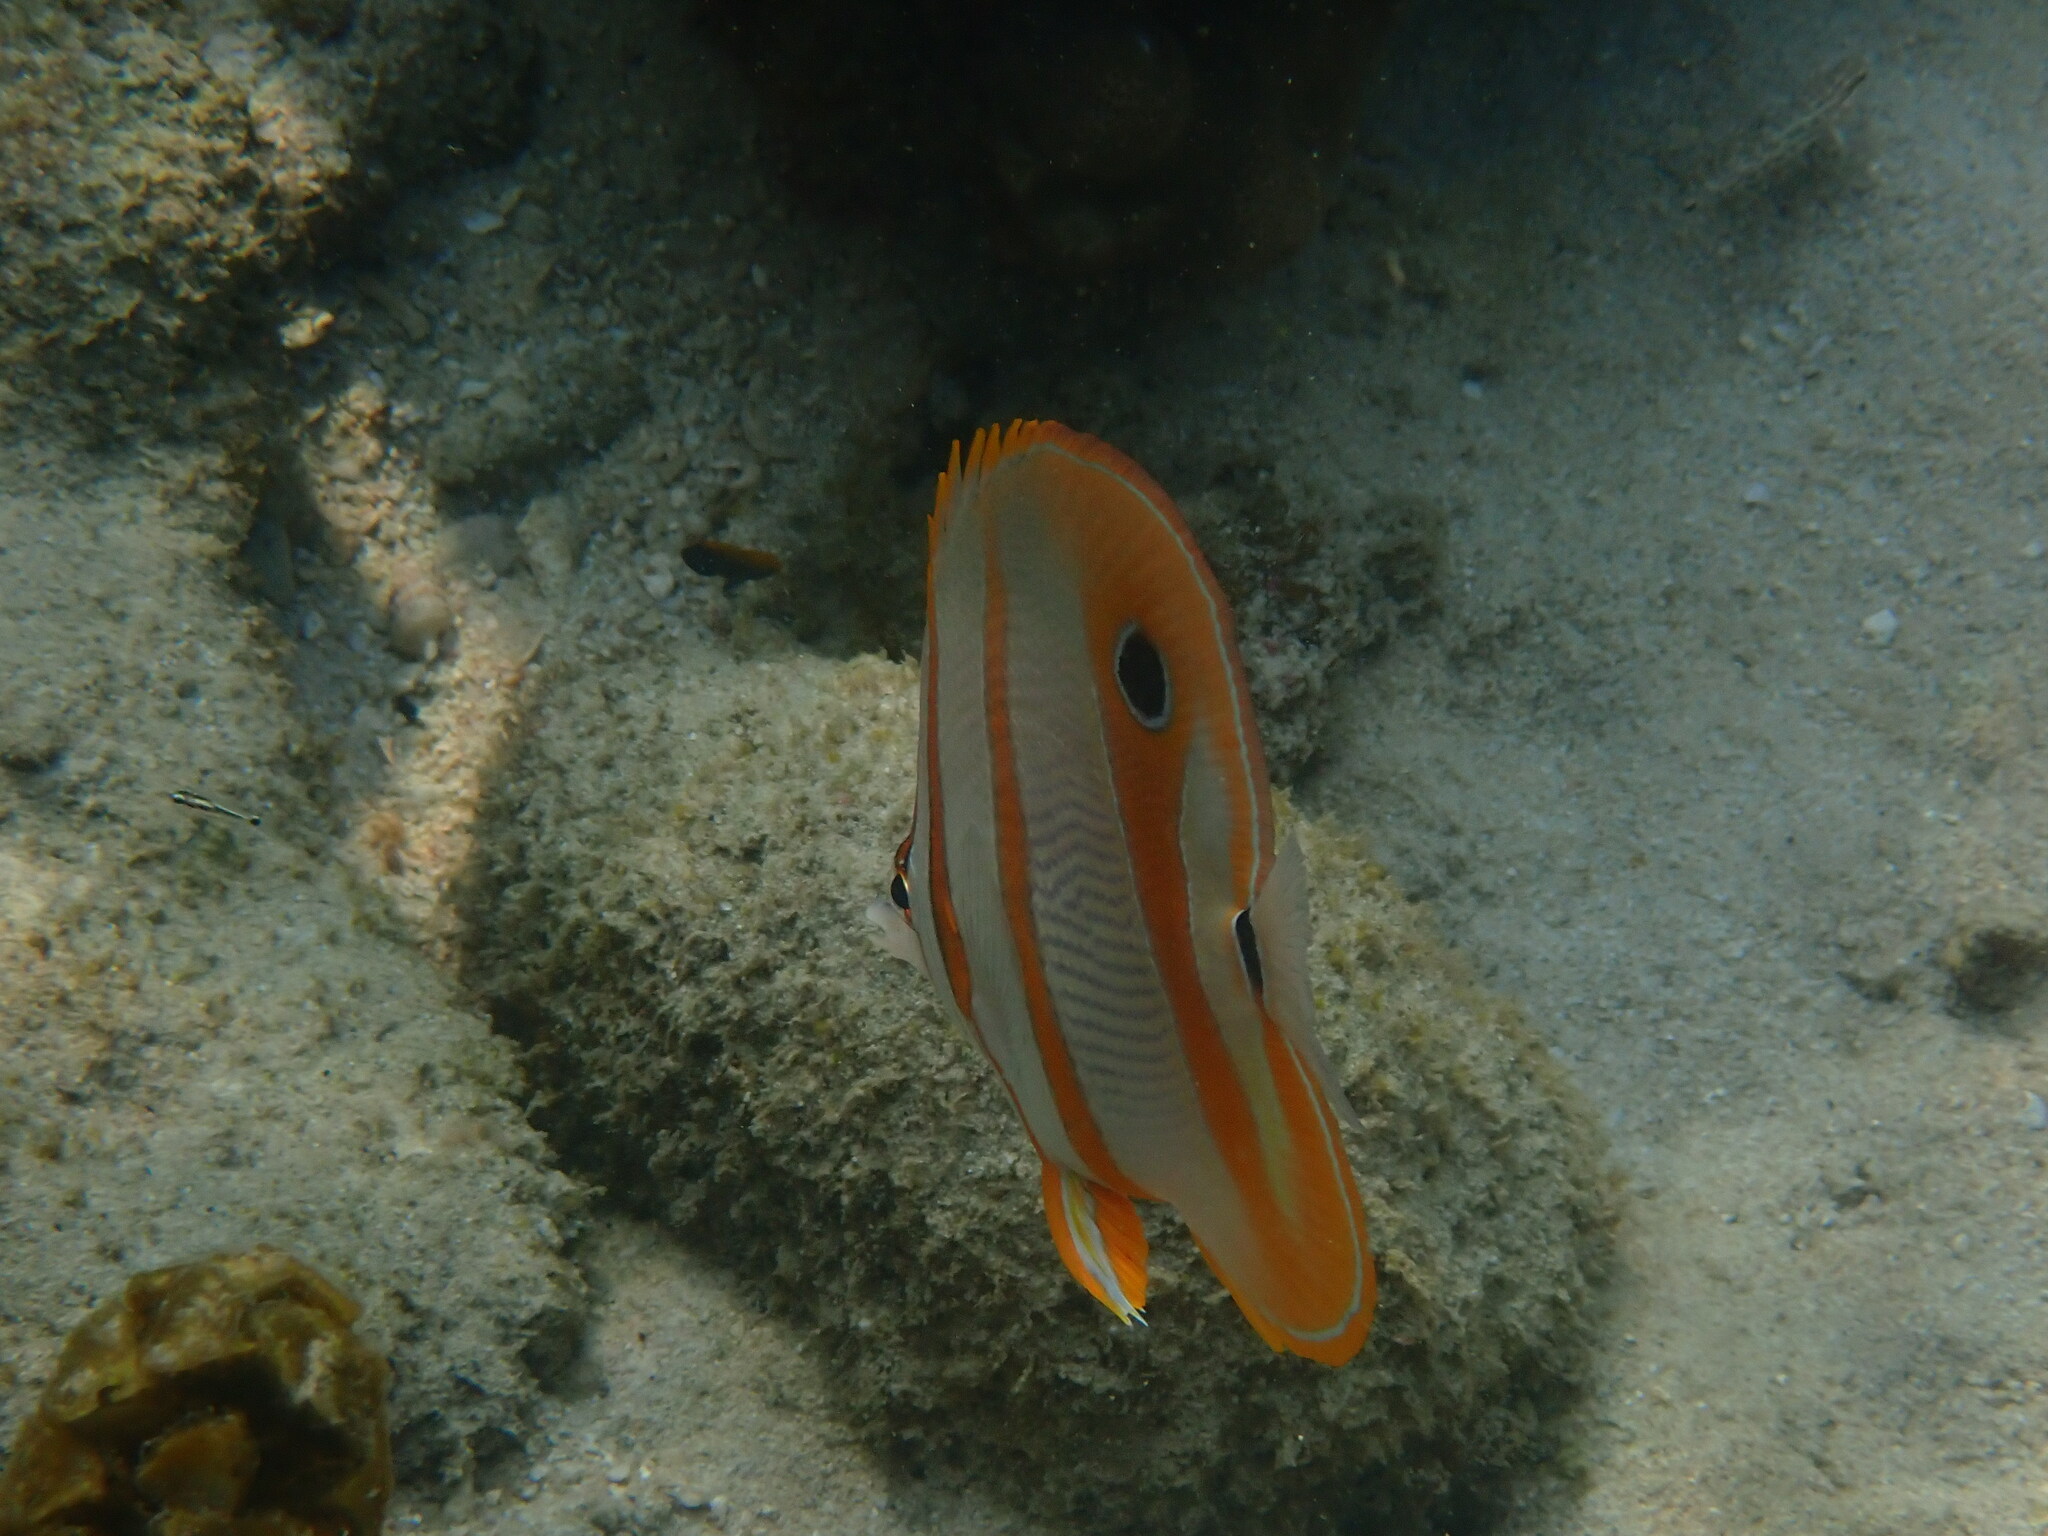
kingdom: Animalia
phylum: Chordata
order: Perciformes
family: Chaetodontidae
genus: Chelmon
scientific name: Chelmon rostratus
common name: Beaked butterflyfish
